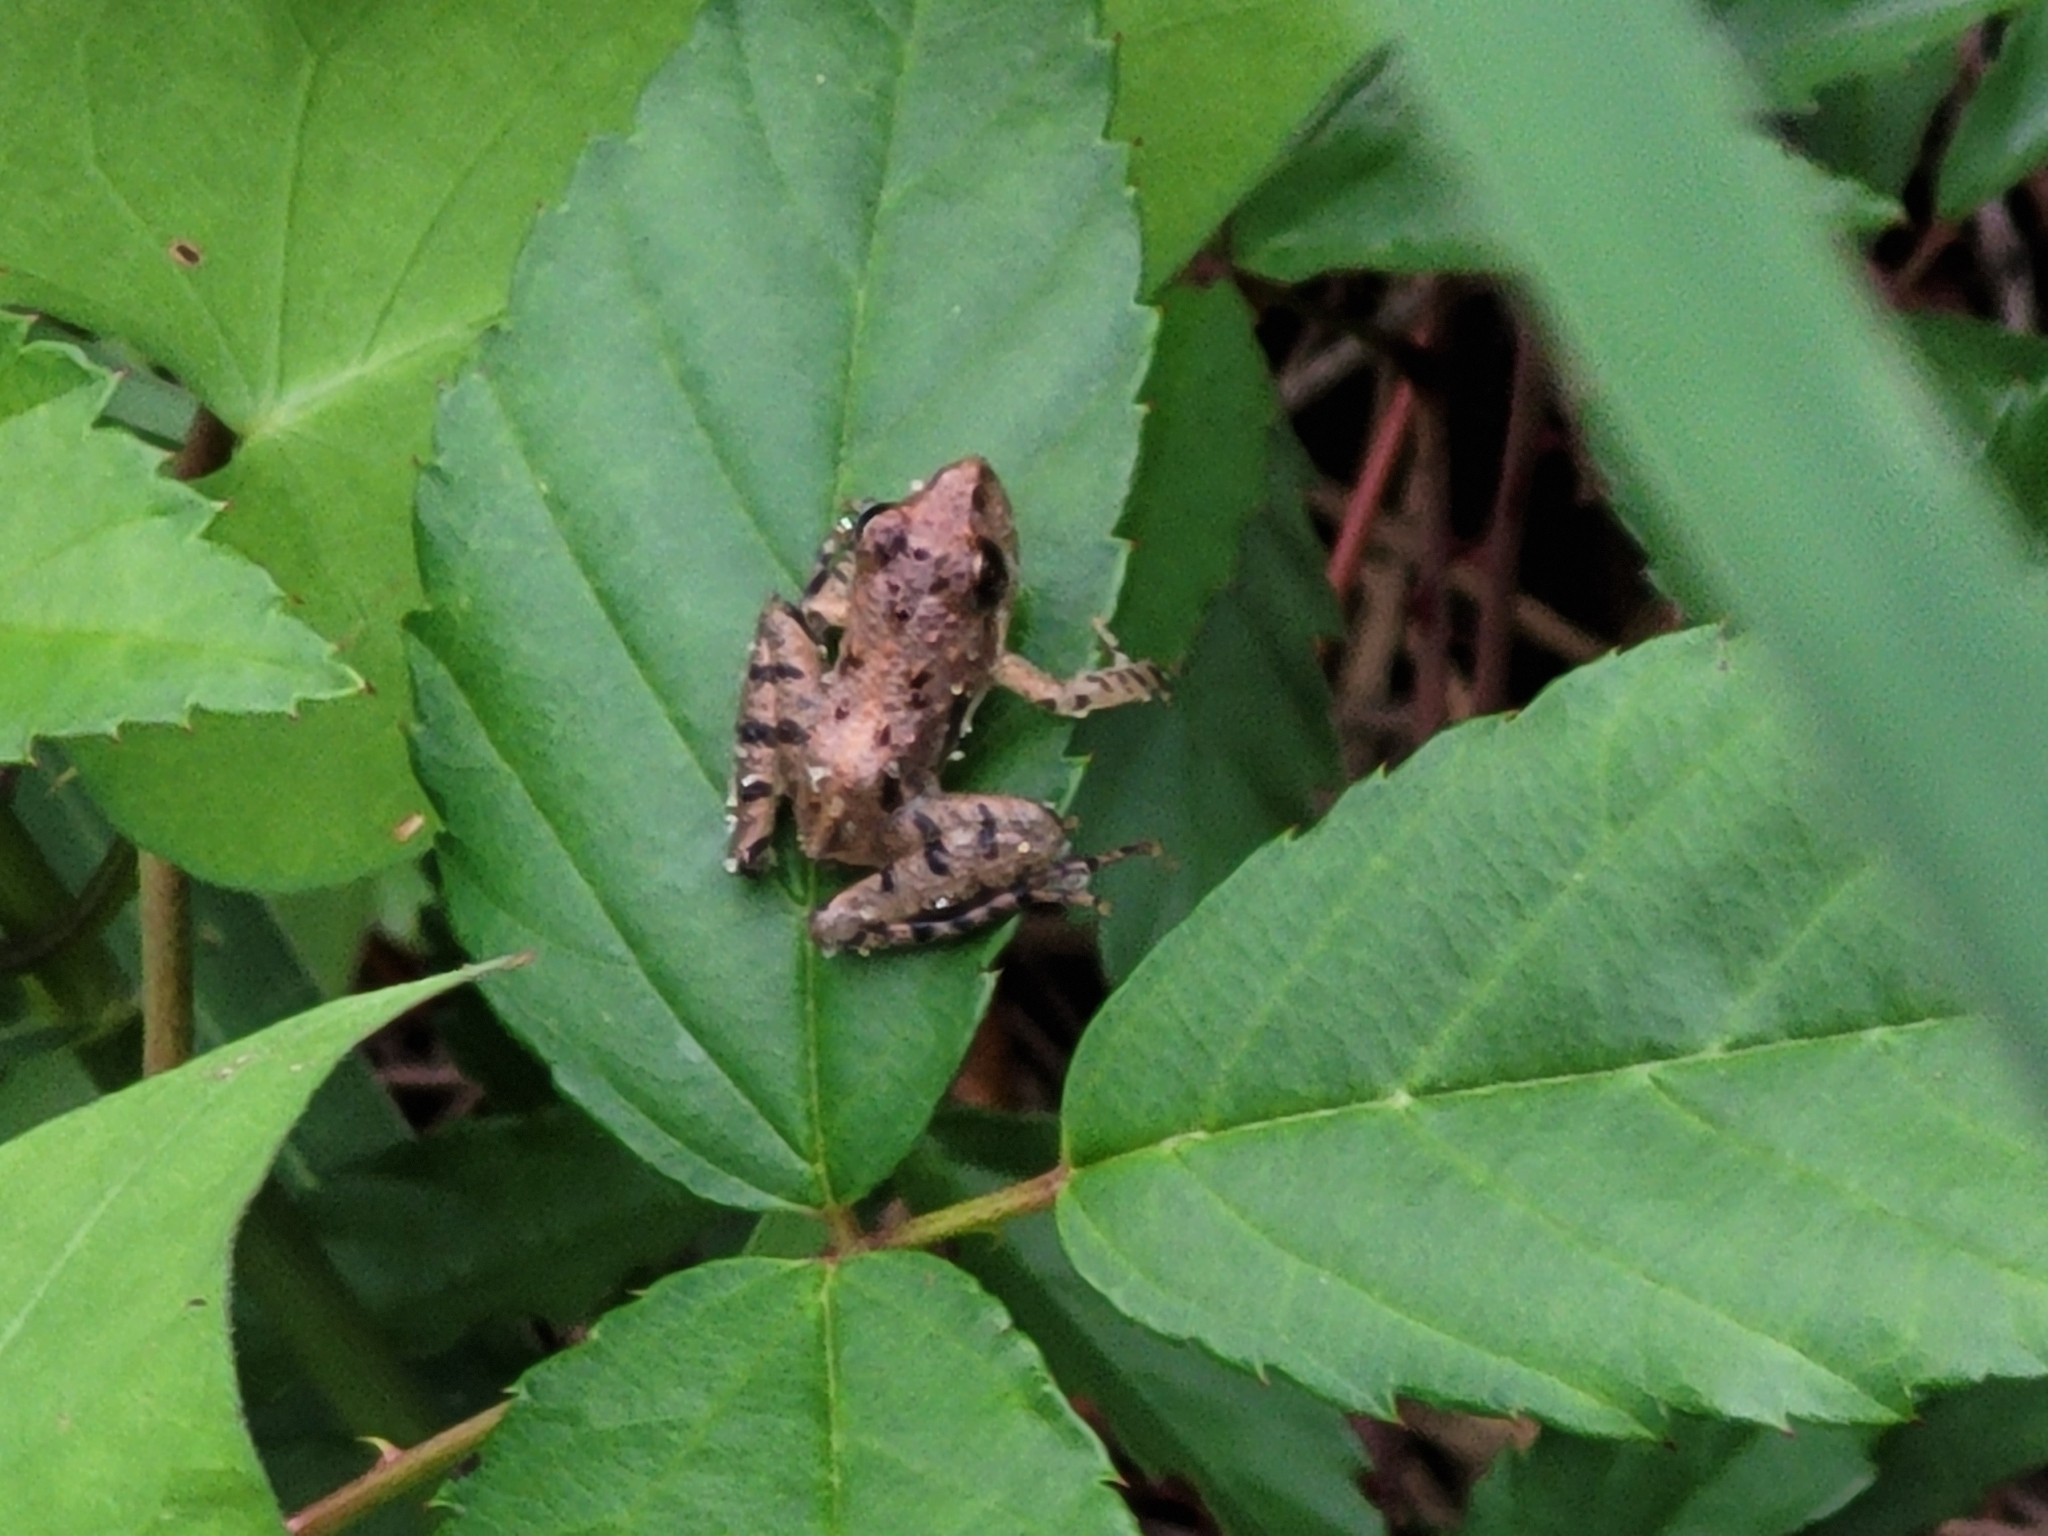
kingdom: Animalia
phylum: Chordata
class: Amphibia
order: Anura
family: Hylidae
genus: Acris
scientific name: Acris gryllus
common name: Southern cricket frog
